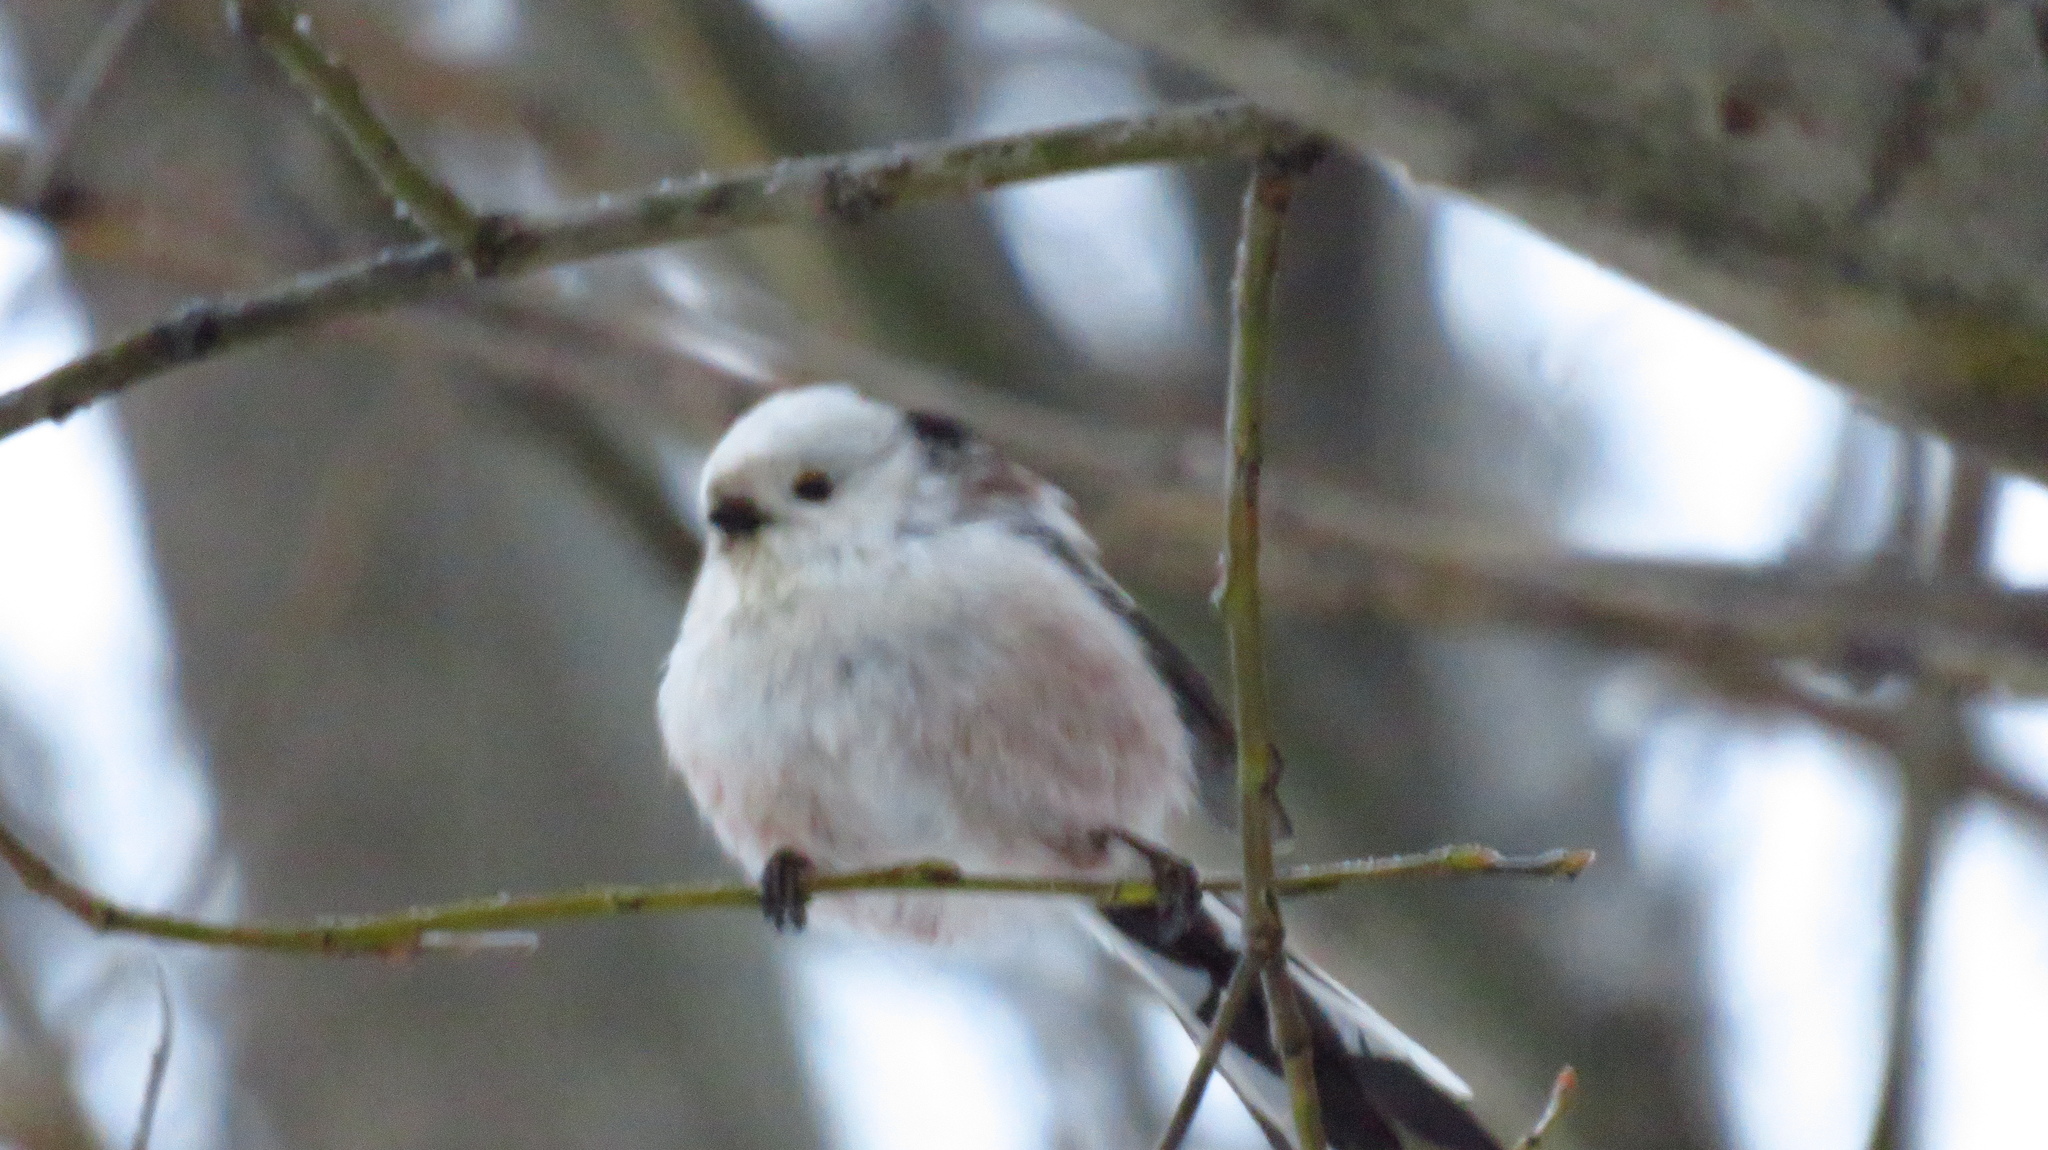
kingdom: Animalia
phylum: Chordata
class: Aves
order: Passeriformes
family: Aegithalidae
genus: Aegithalos
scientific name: Aegithalos caudatus
